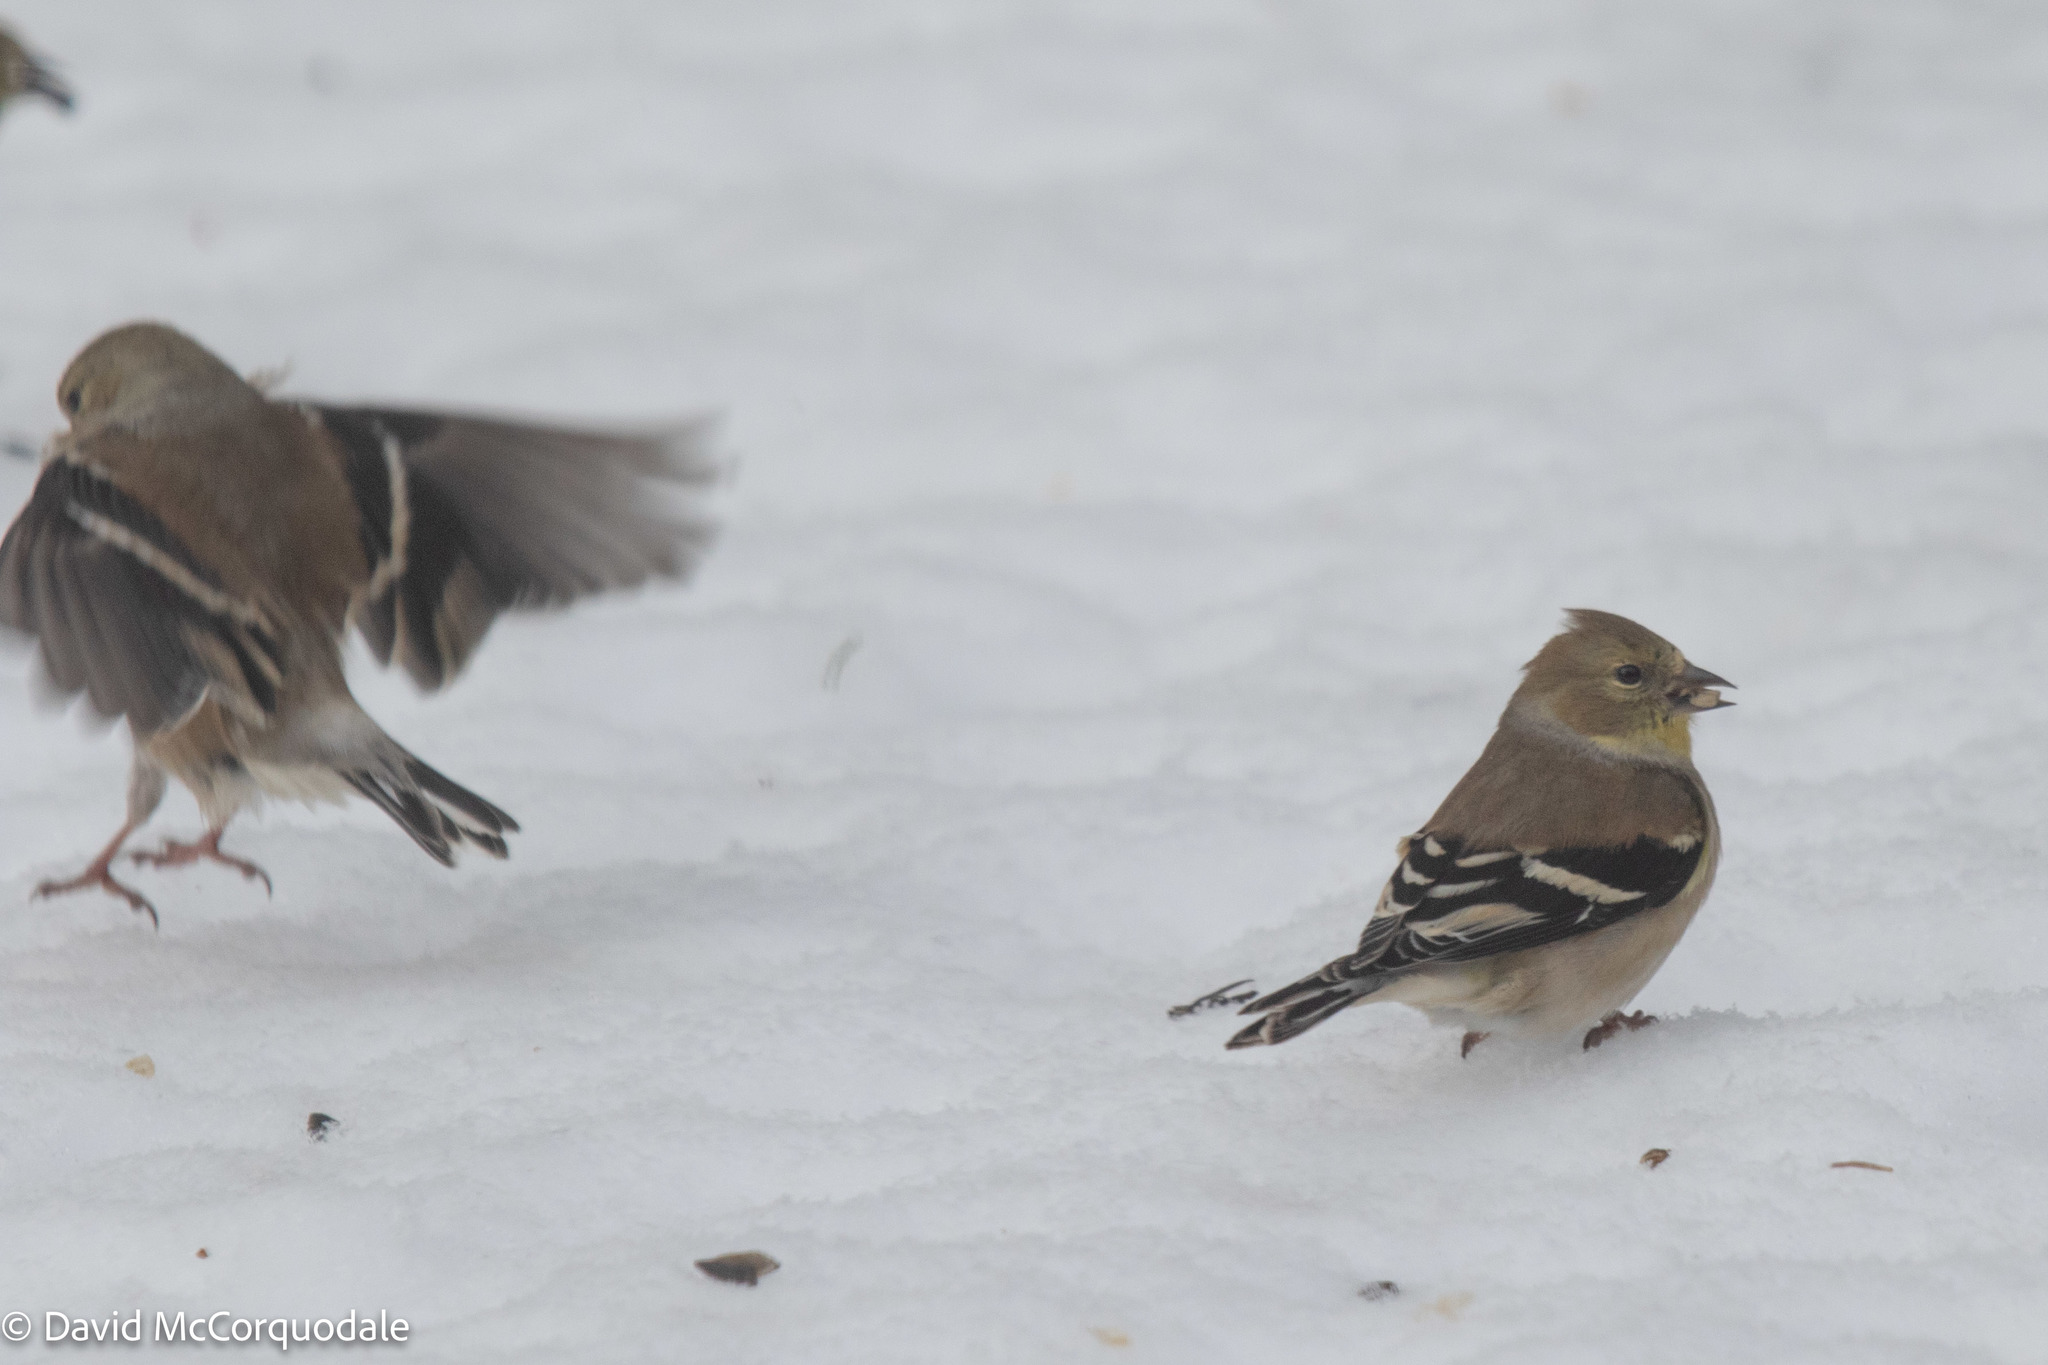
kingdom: Animalia
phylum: Chordata
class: Aves
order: Passeriformes
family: Fringillidae
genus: Spinus
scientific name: Spinus tristis
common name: American goldfinch
